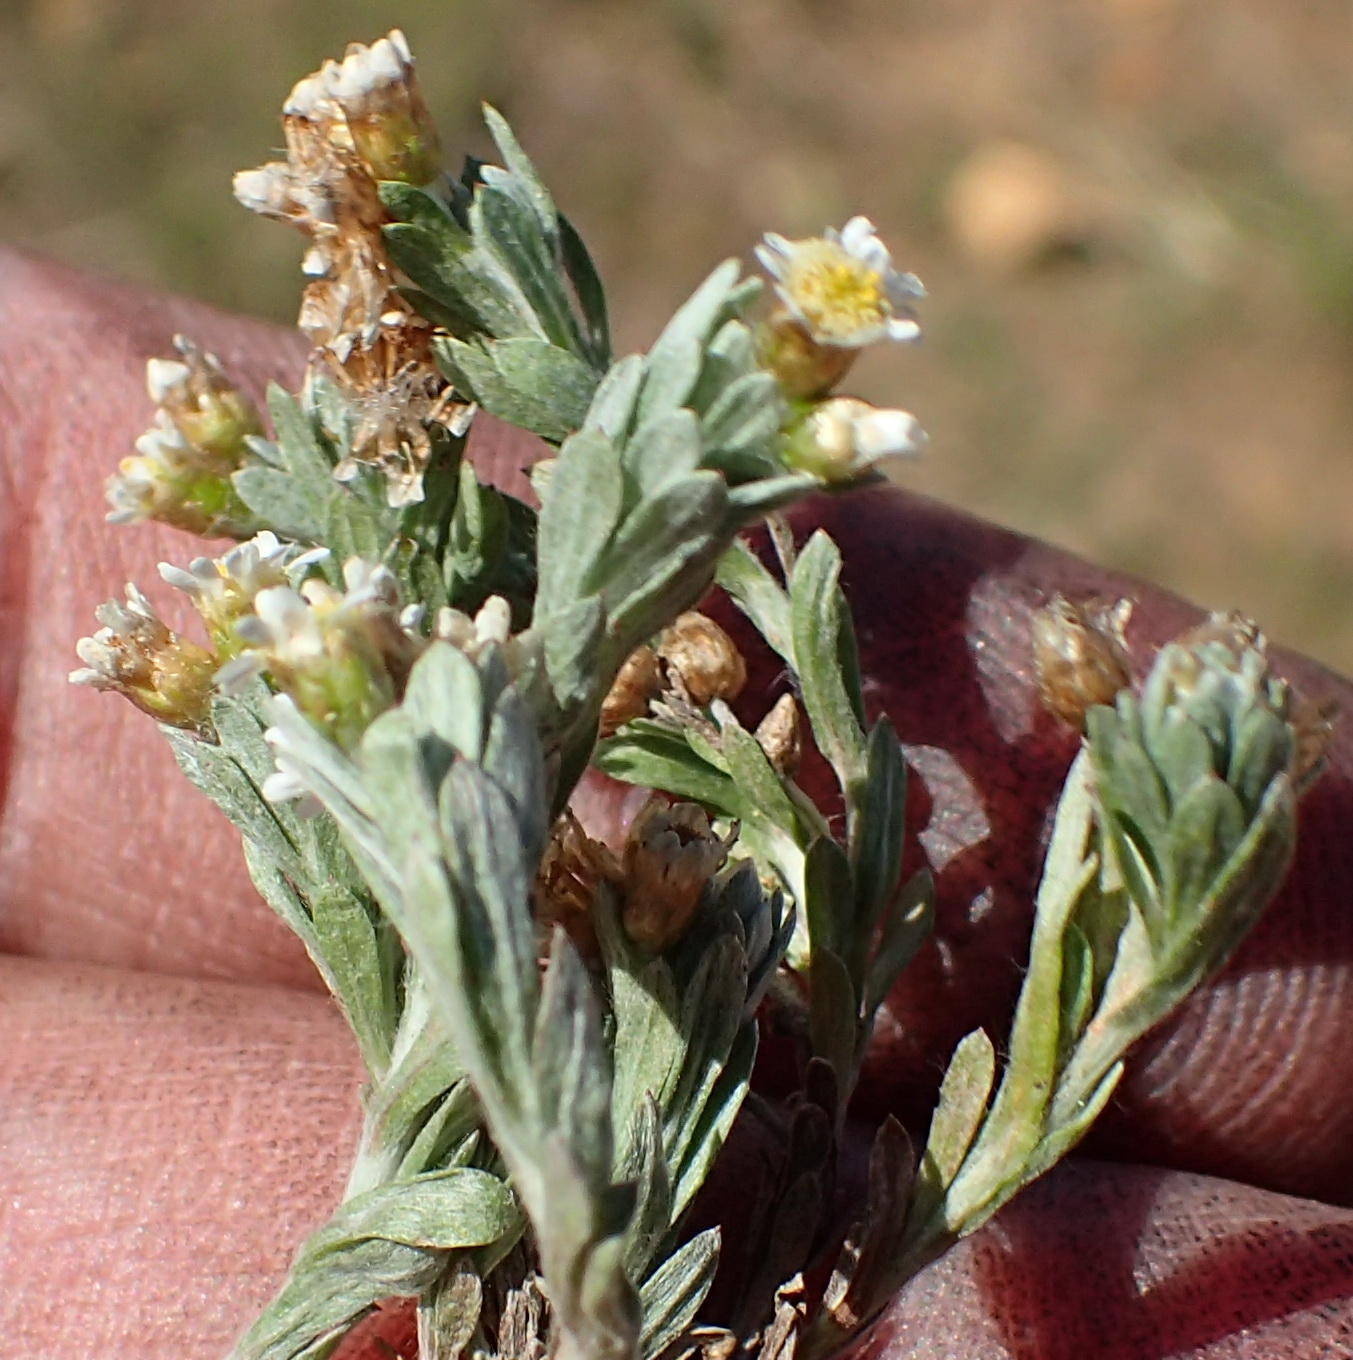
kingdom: Plantae
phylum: Tracheophyta
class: Magnoliopsida
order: Asterales
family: Asteraceae
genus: Gnaphalium
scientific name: Gnaphalium declinatum
